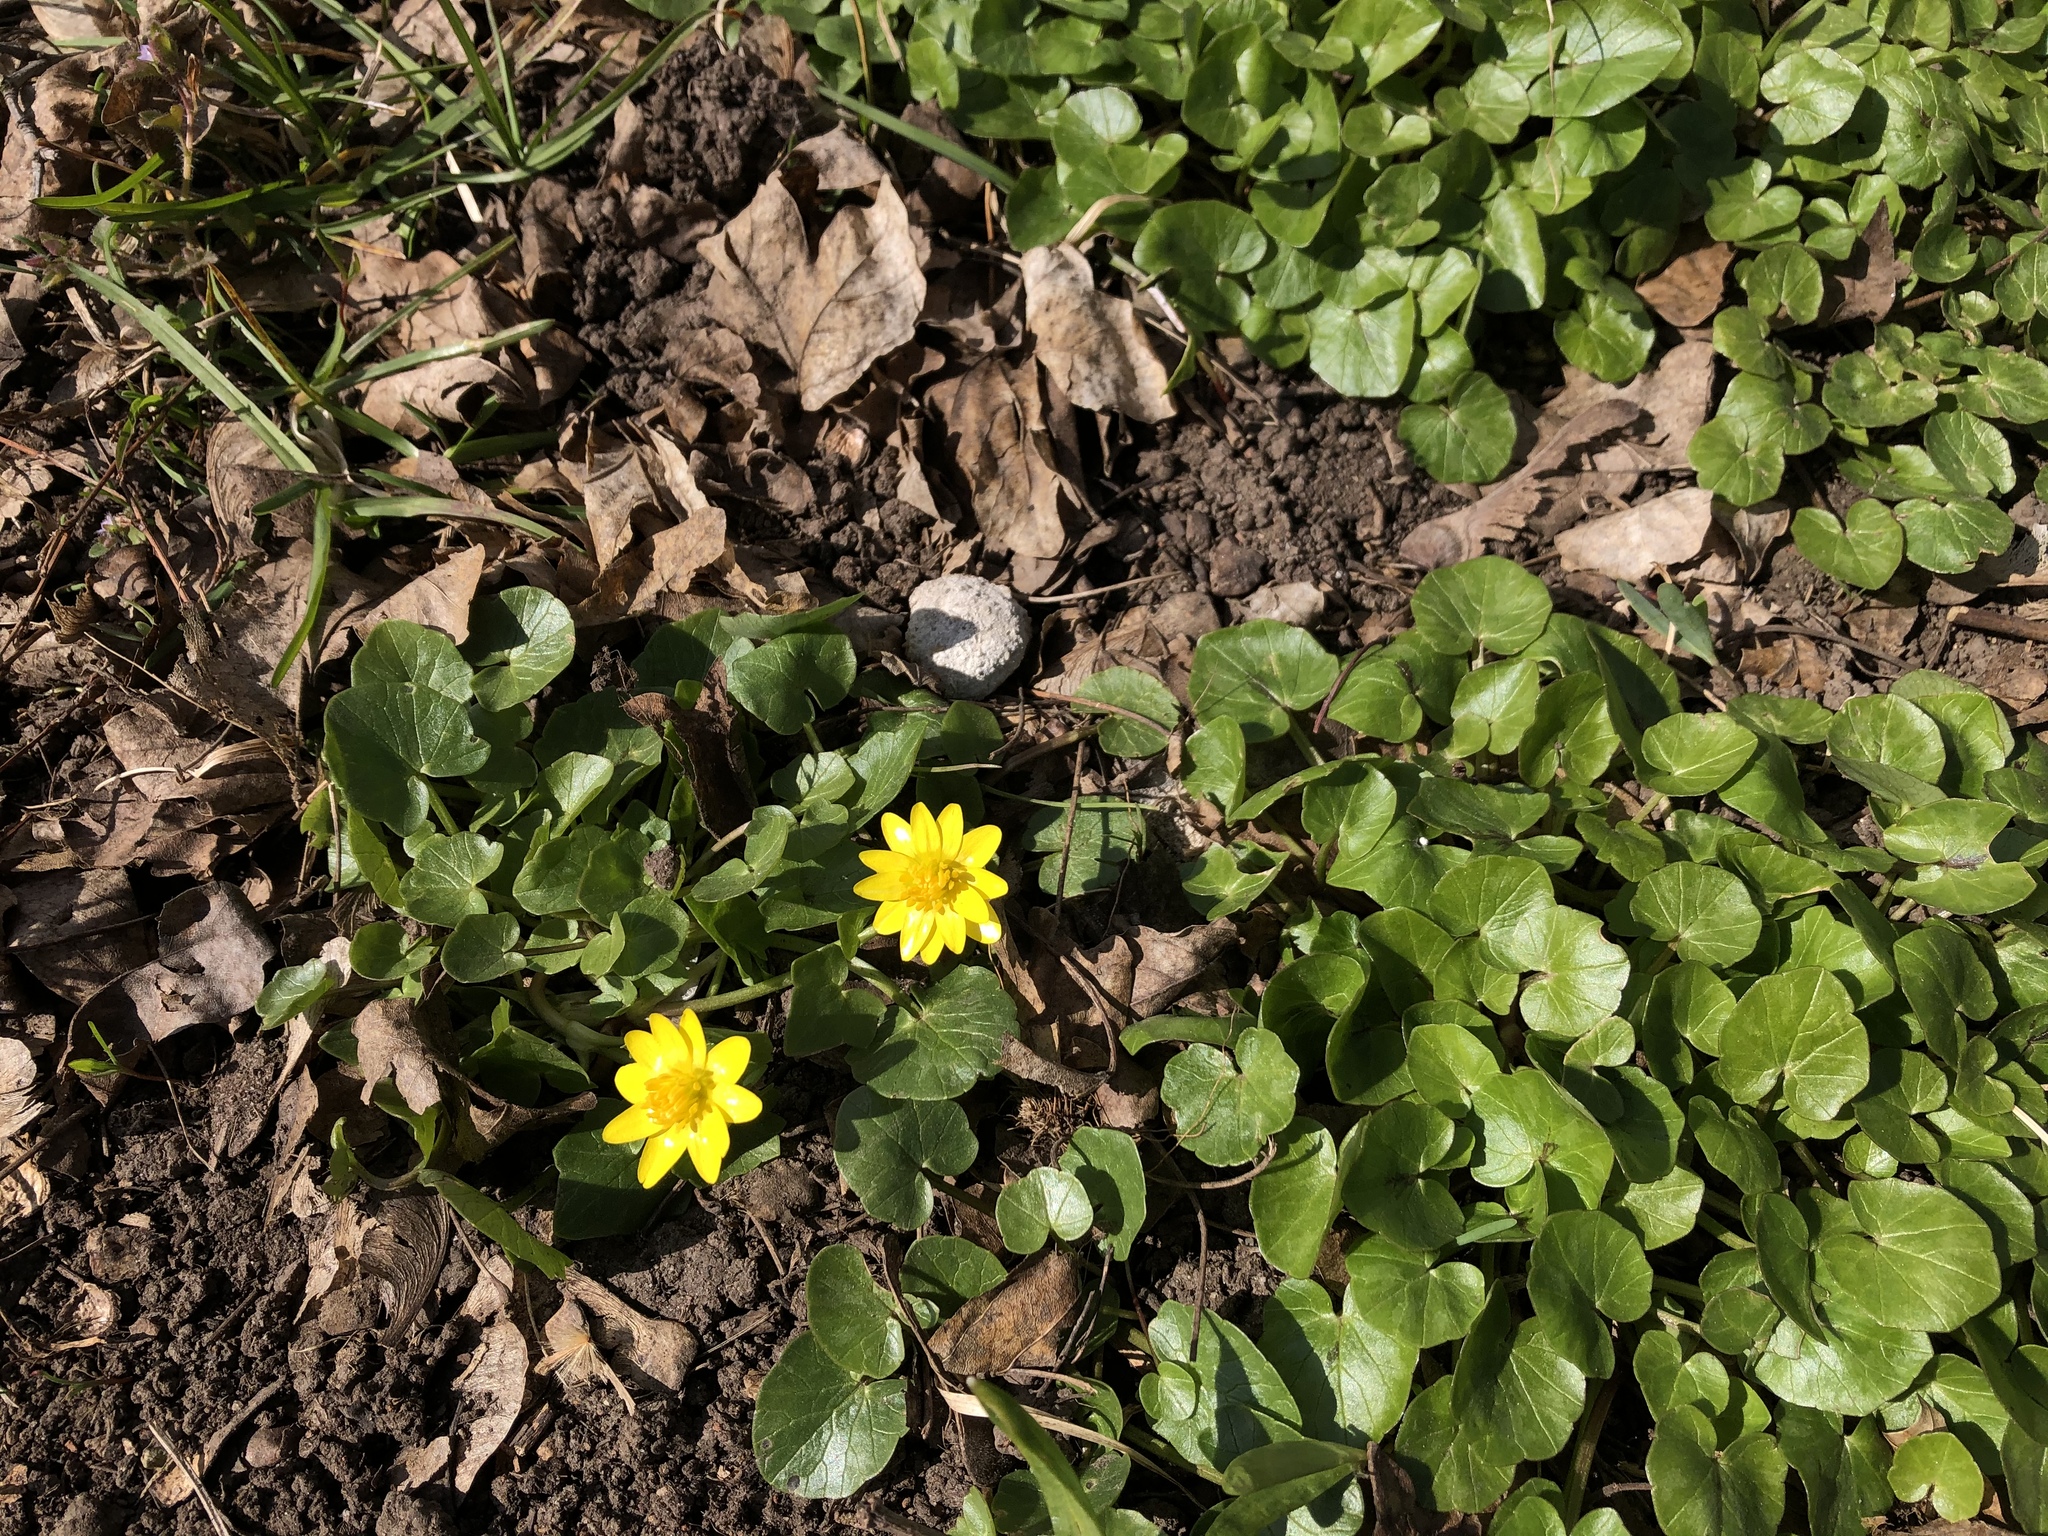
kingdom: Plantae
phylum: Tracheophyta
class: Magnoliopsida
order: Ranunculales
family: Ranunculaceae
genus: Ficaria
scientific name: Ficaria verna
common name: Lesser celandine
